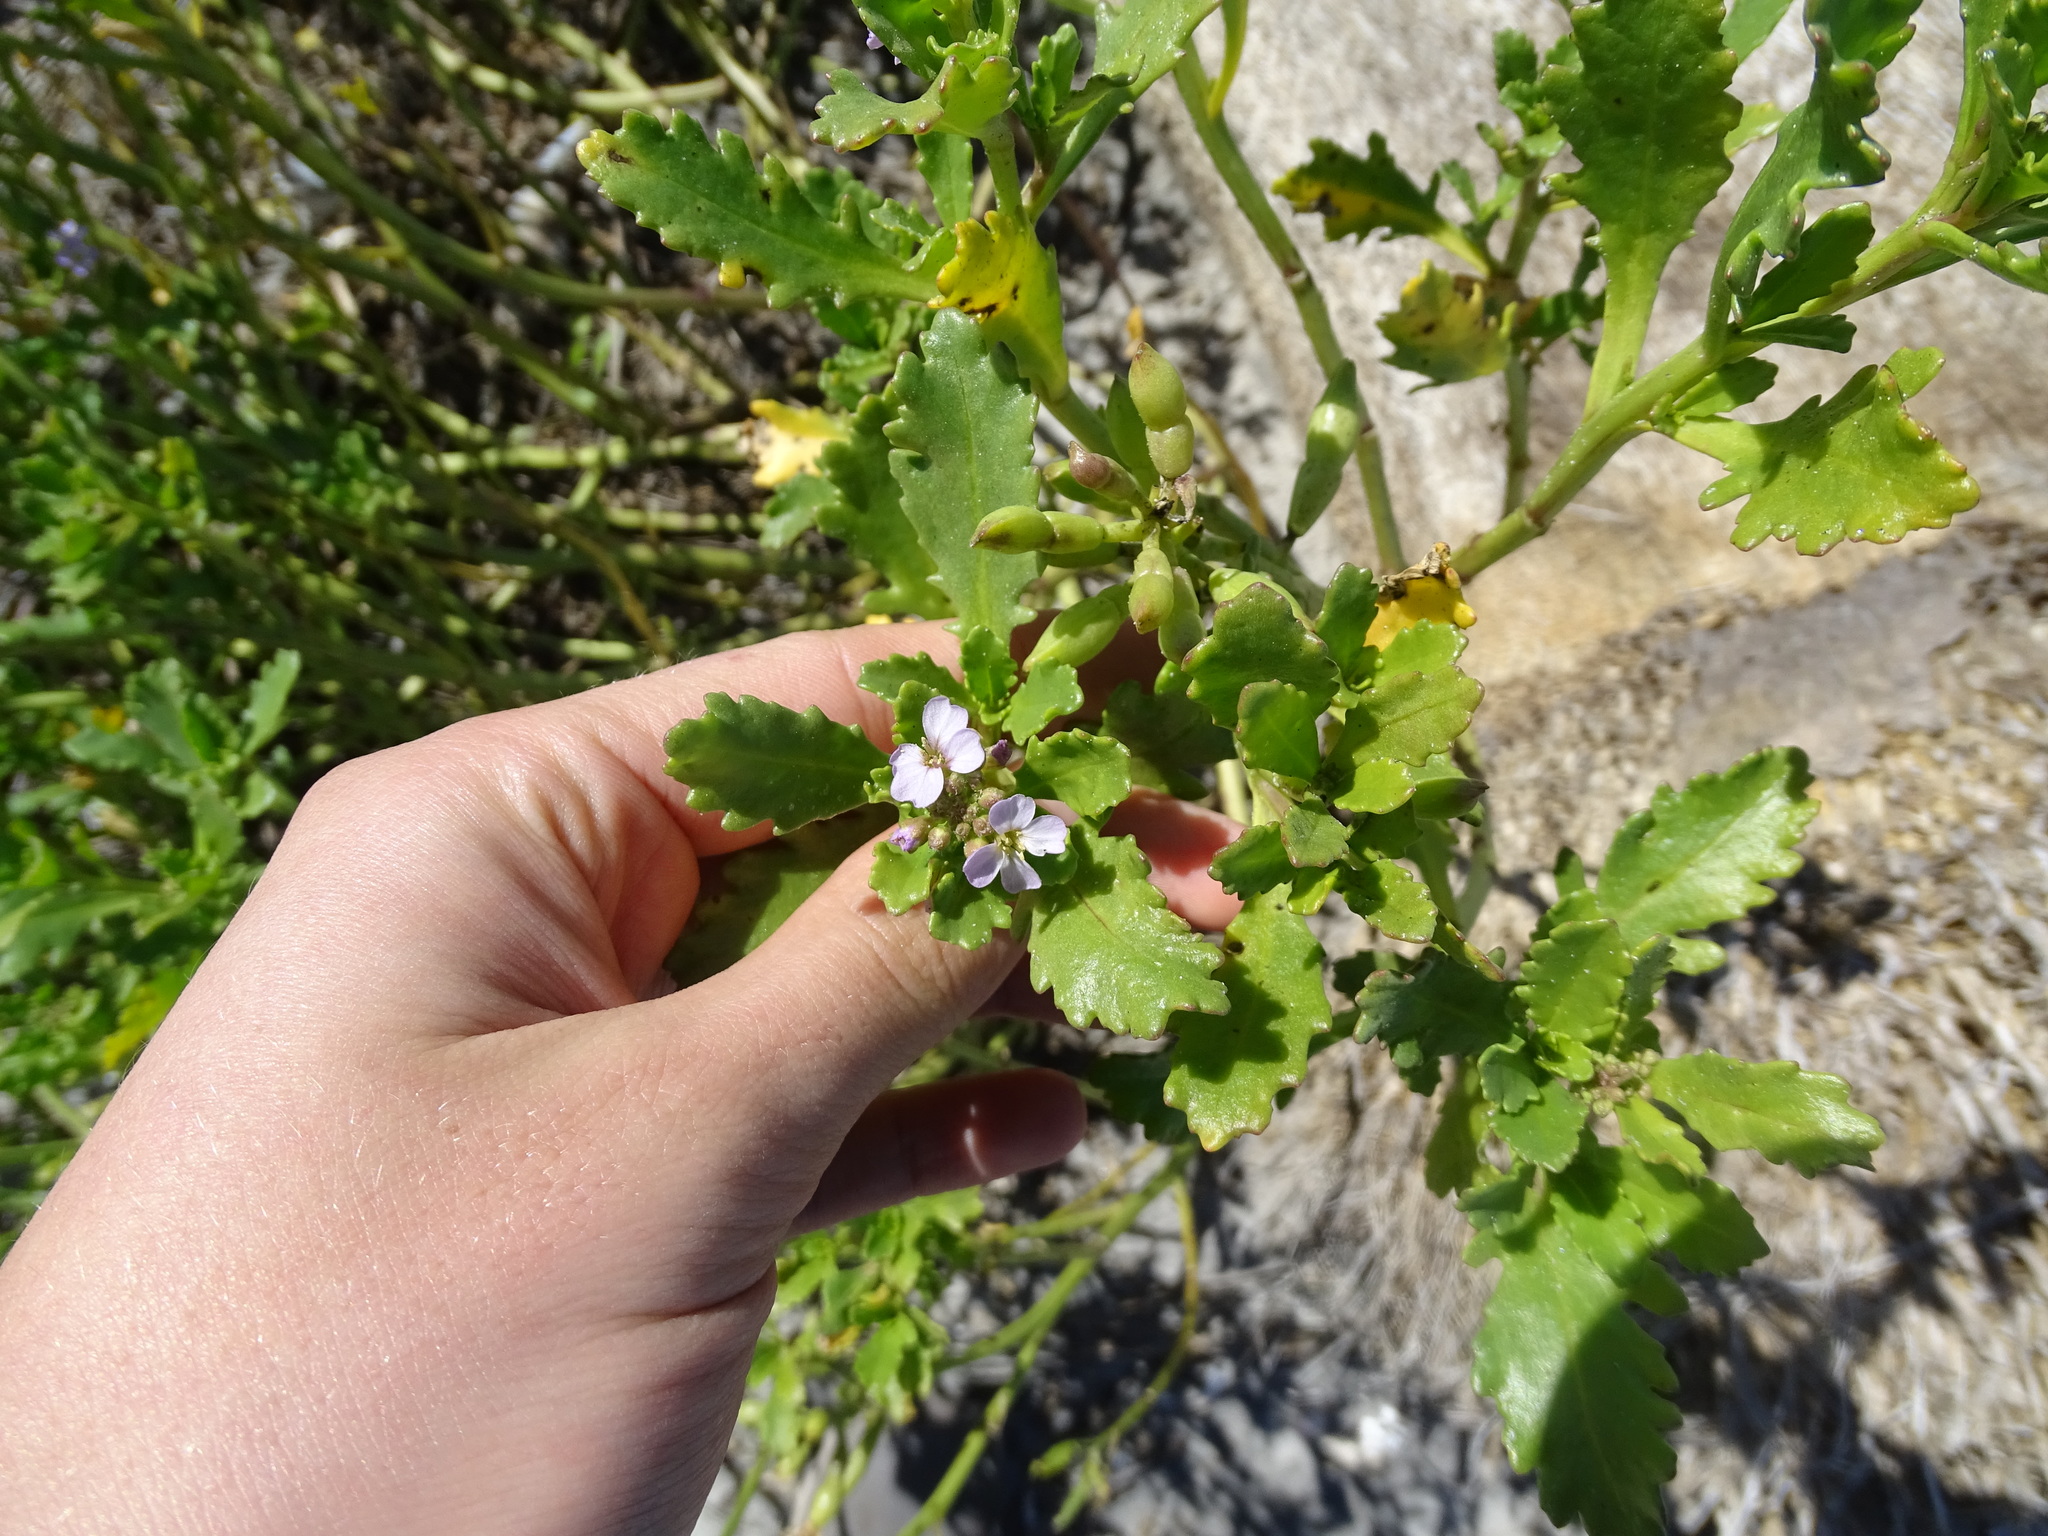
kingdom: Plantae
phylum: Tracheophyta
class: Magnoliopsida
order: Brassicales
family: Brassicaceae
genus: Cakile
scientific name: Cakile edentula
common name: American sea rocket
